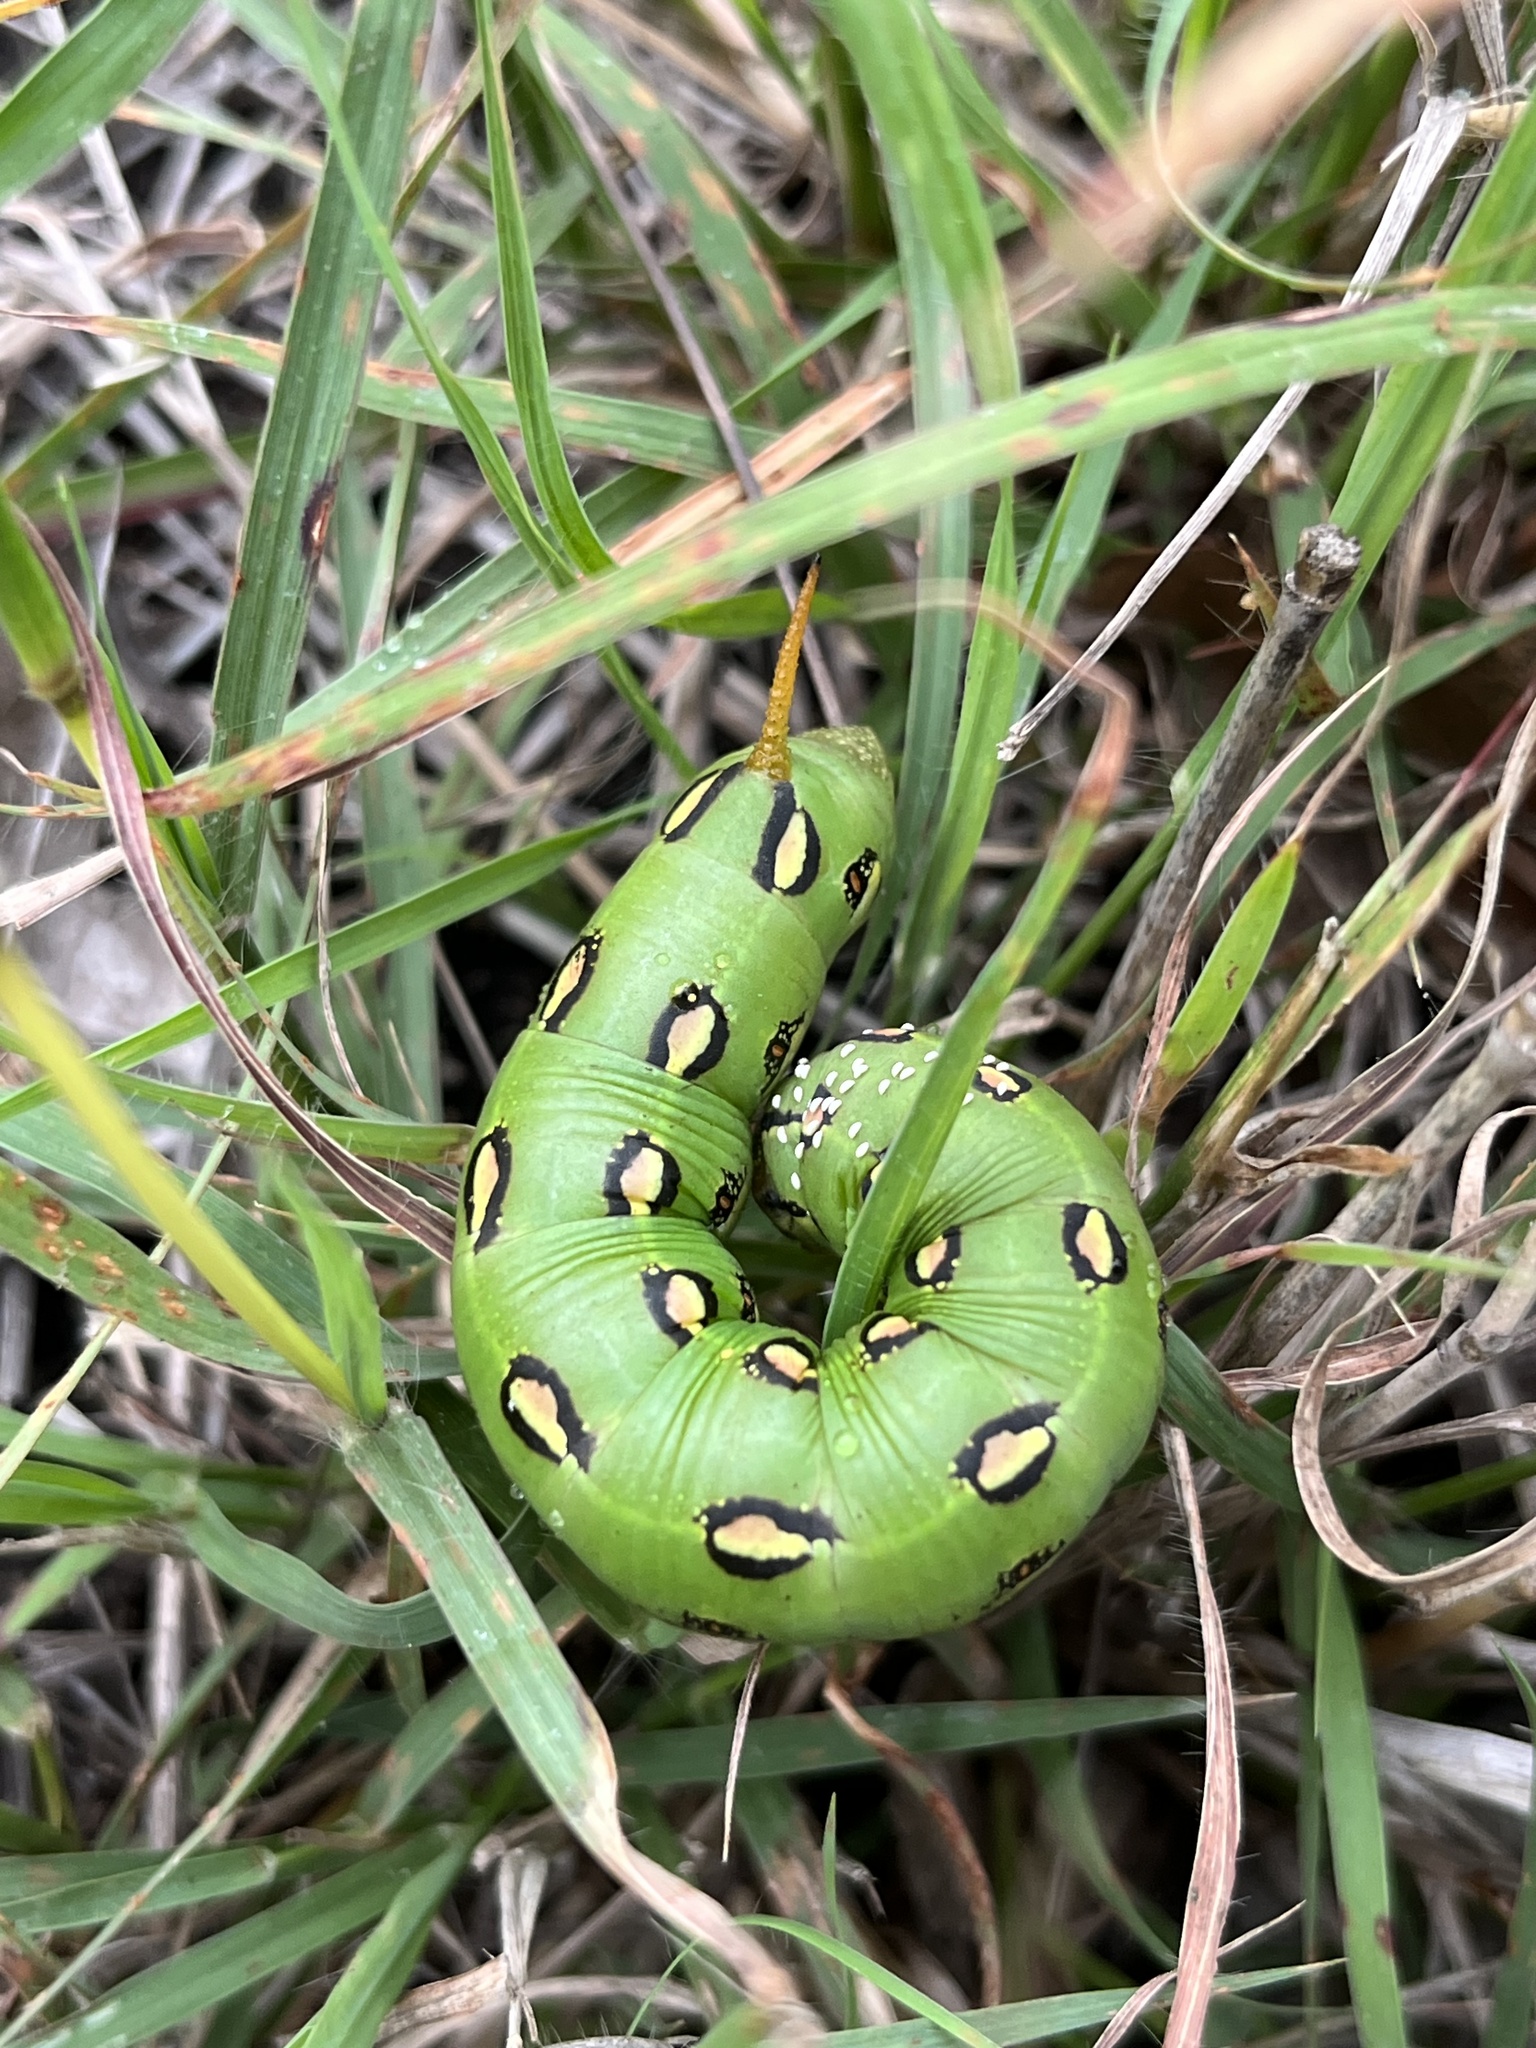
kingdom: Animalia
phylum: Arthropoda
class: Insecta
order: Lepidoptera
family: Sphingidae
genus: Hyles
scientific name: Hyles lineata
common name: White-lined sphinx
